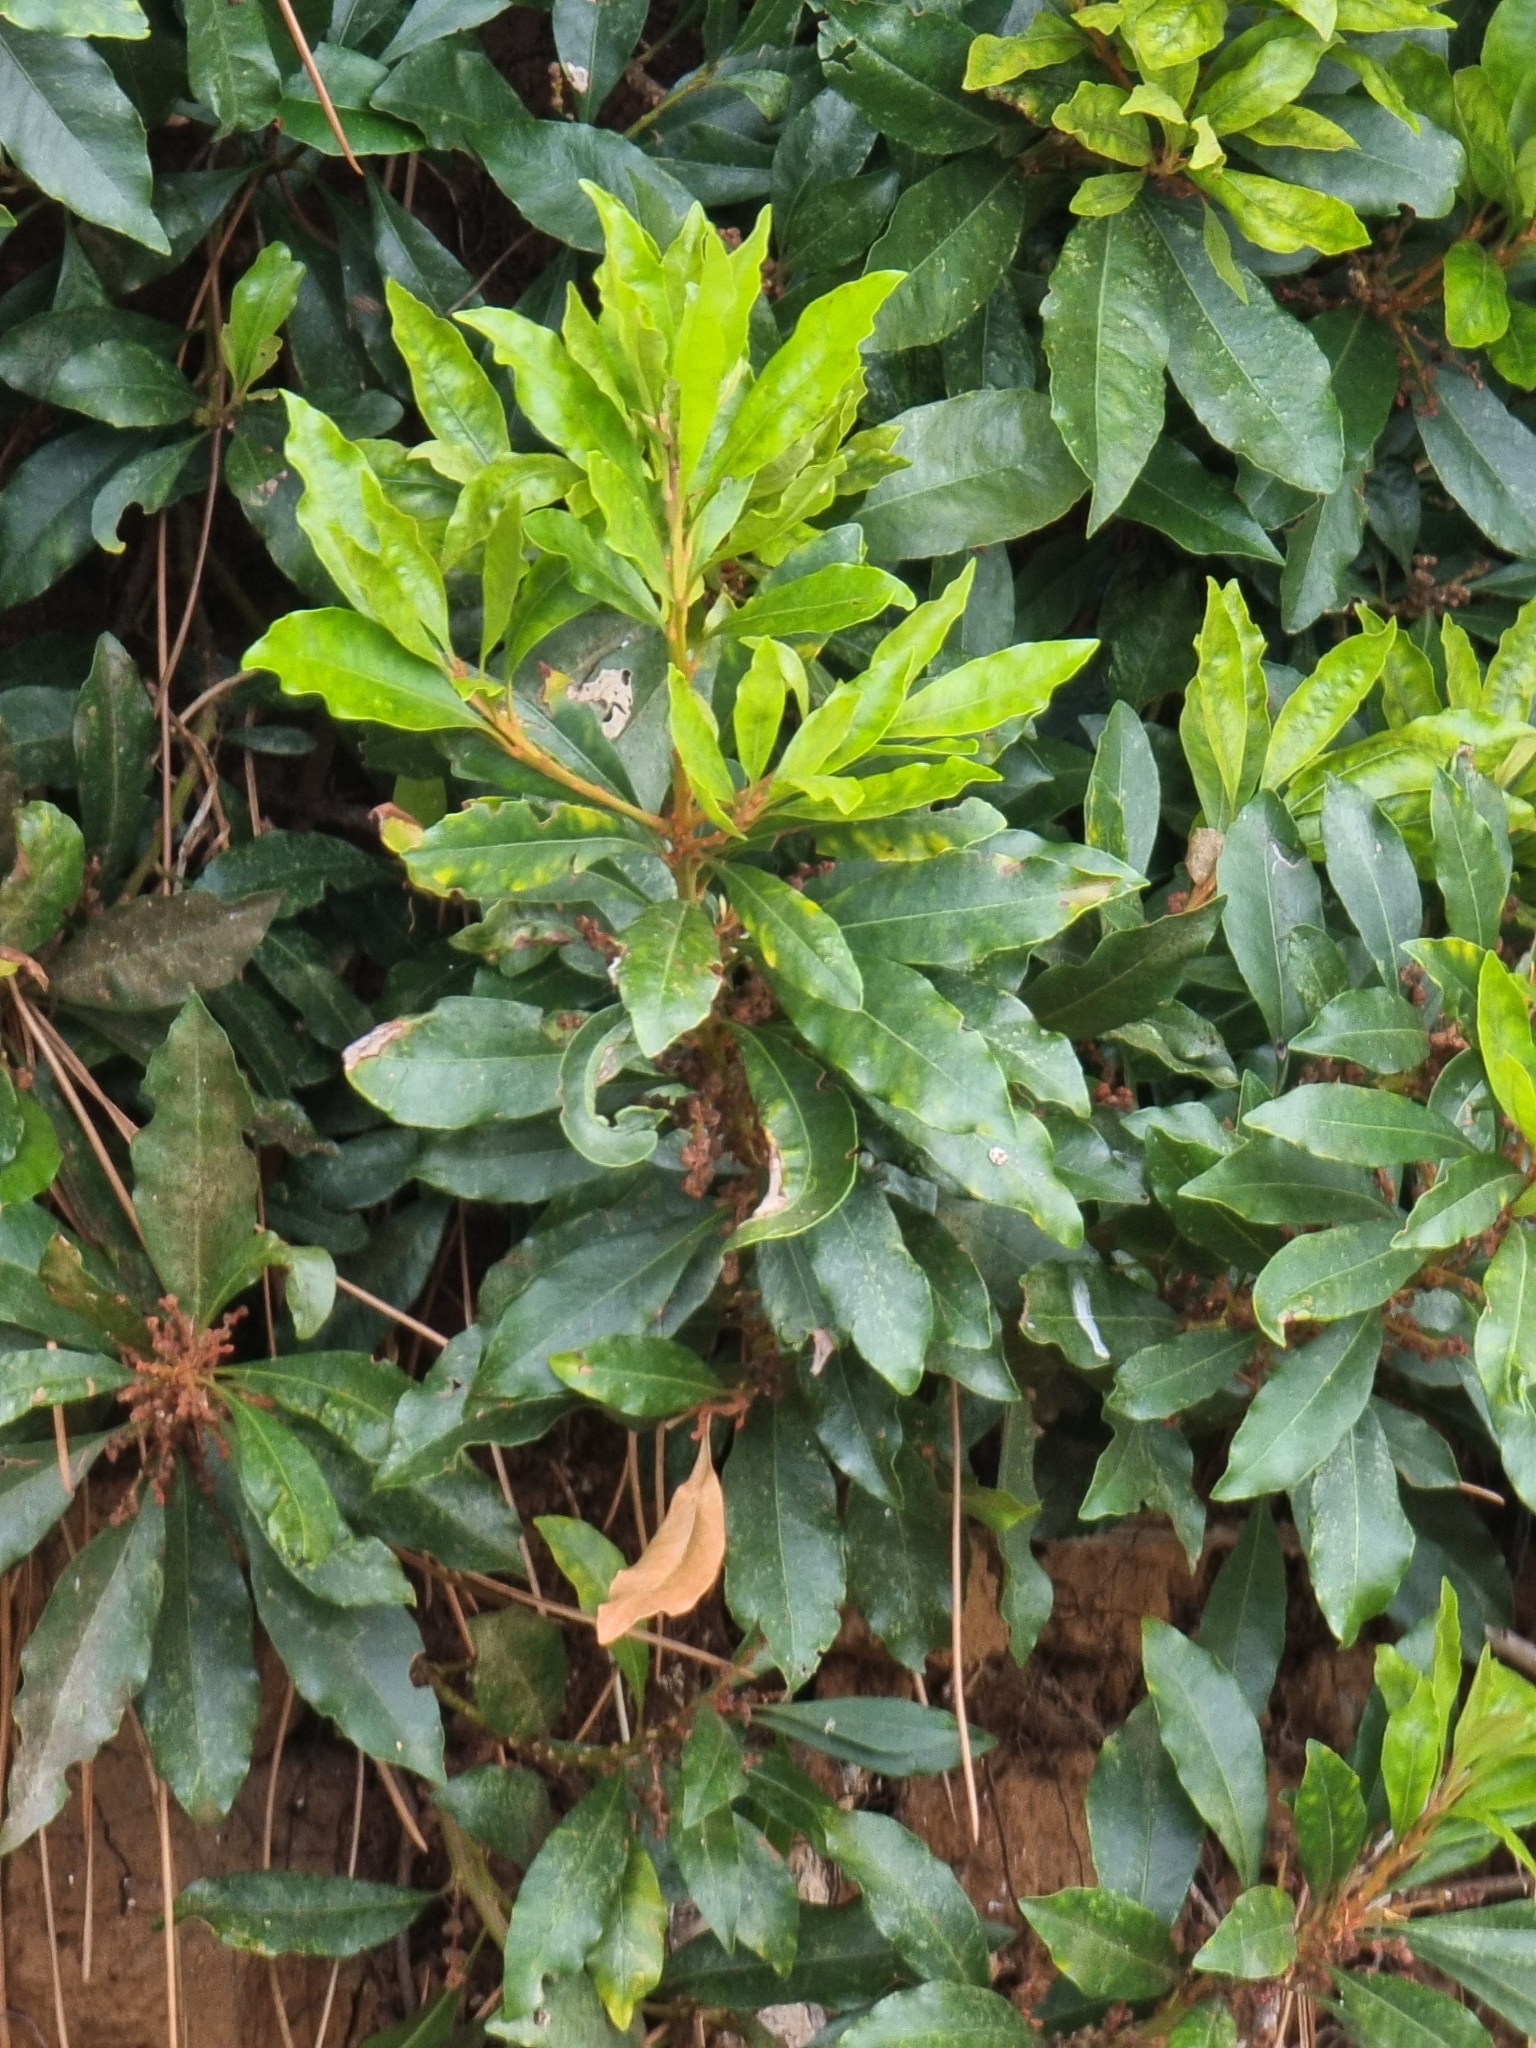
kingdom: Plantae
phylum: Tracheophyta
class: Magnoliopsida
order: Fagales
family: Myricaceae
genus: Morella
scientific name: Morella faya
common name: Firetree
